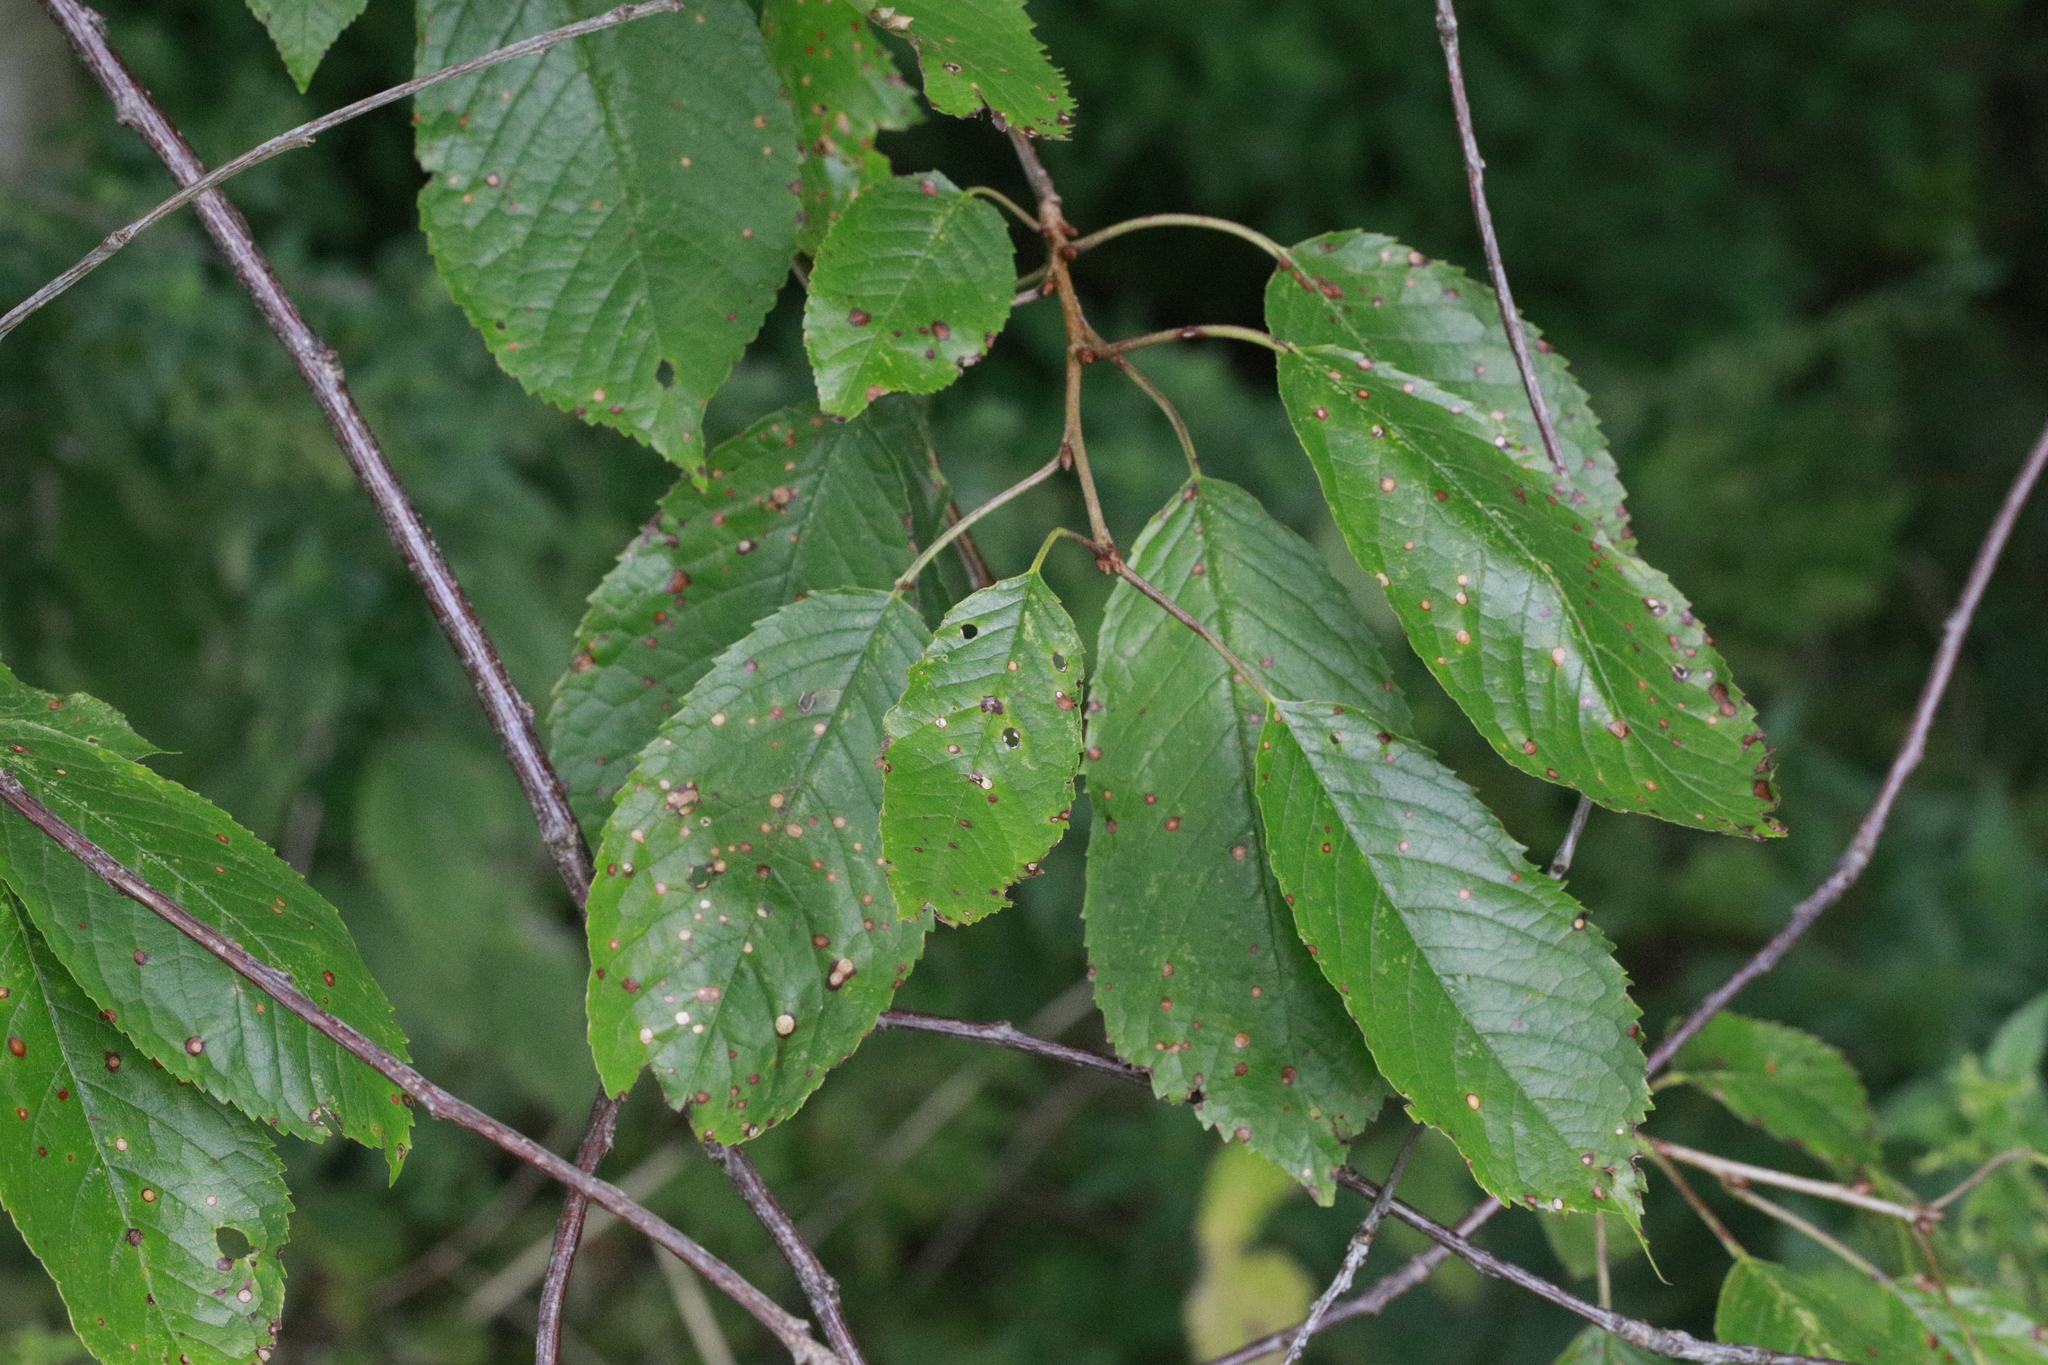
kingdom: Plantae
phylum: Tracheophyta
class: Magnoliopsida
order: Rosales
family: Rosaceae
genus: Prunus
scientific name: Prunus avium
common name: Sweet cherry
